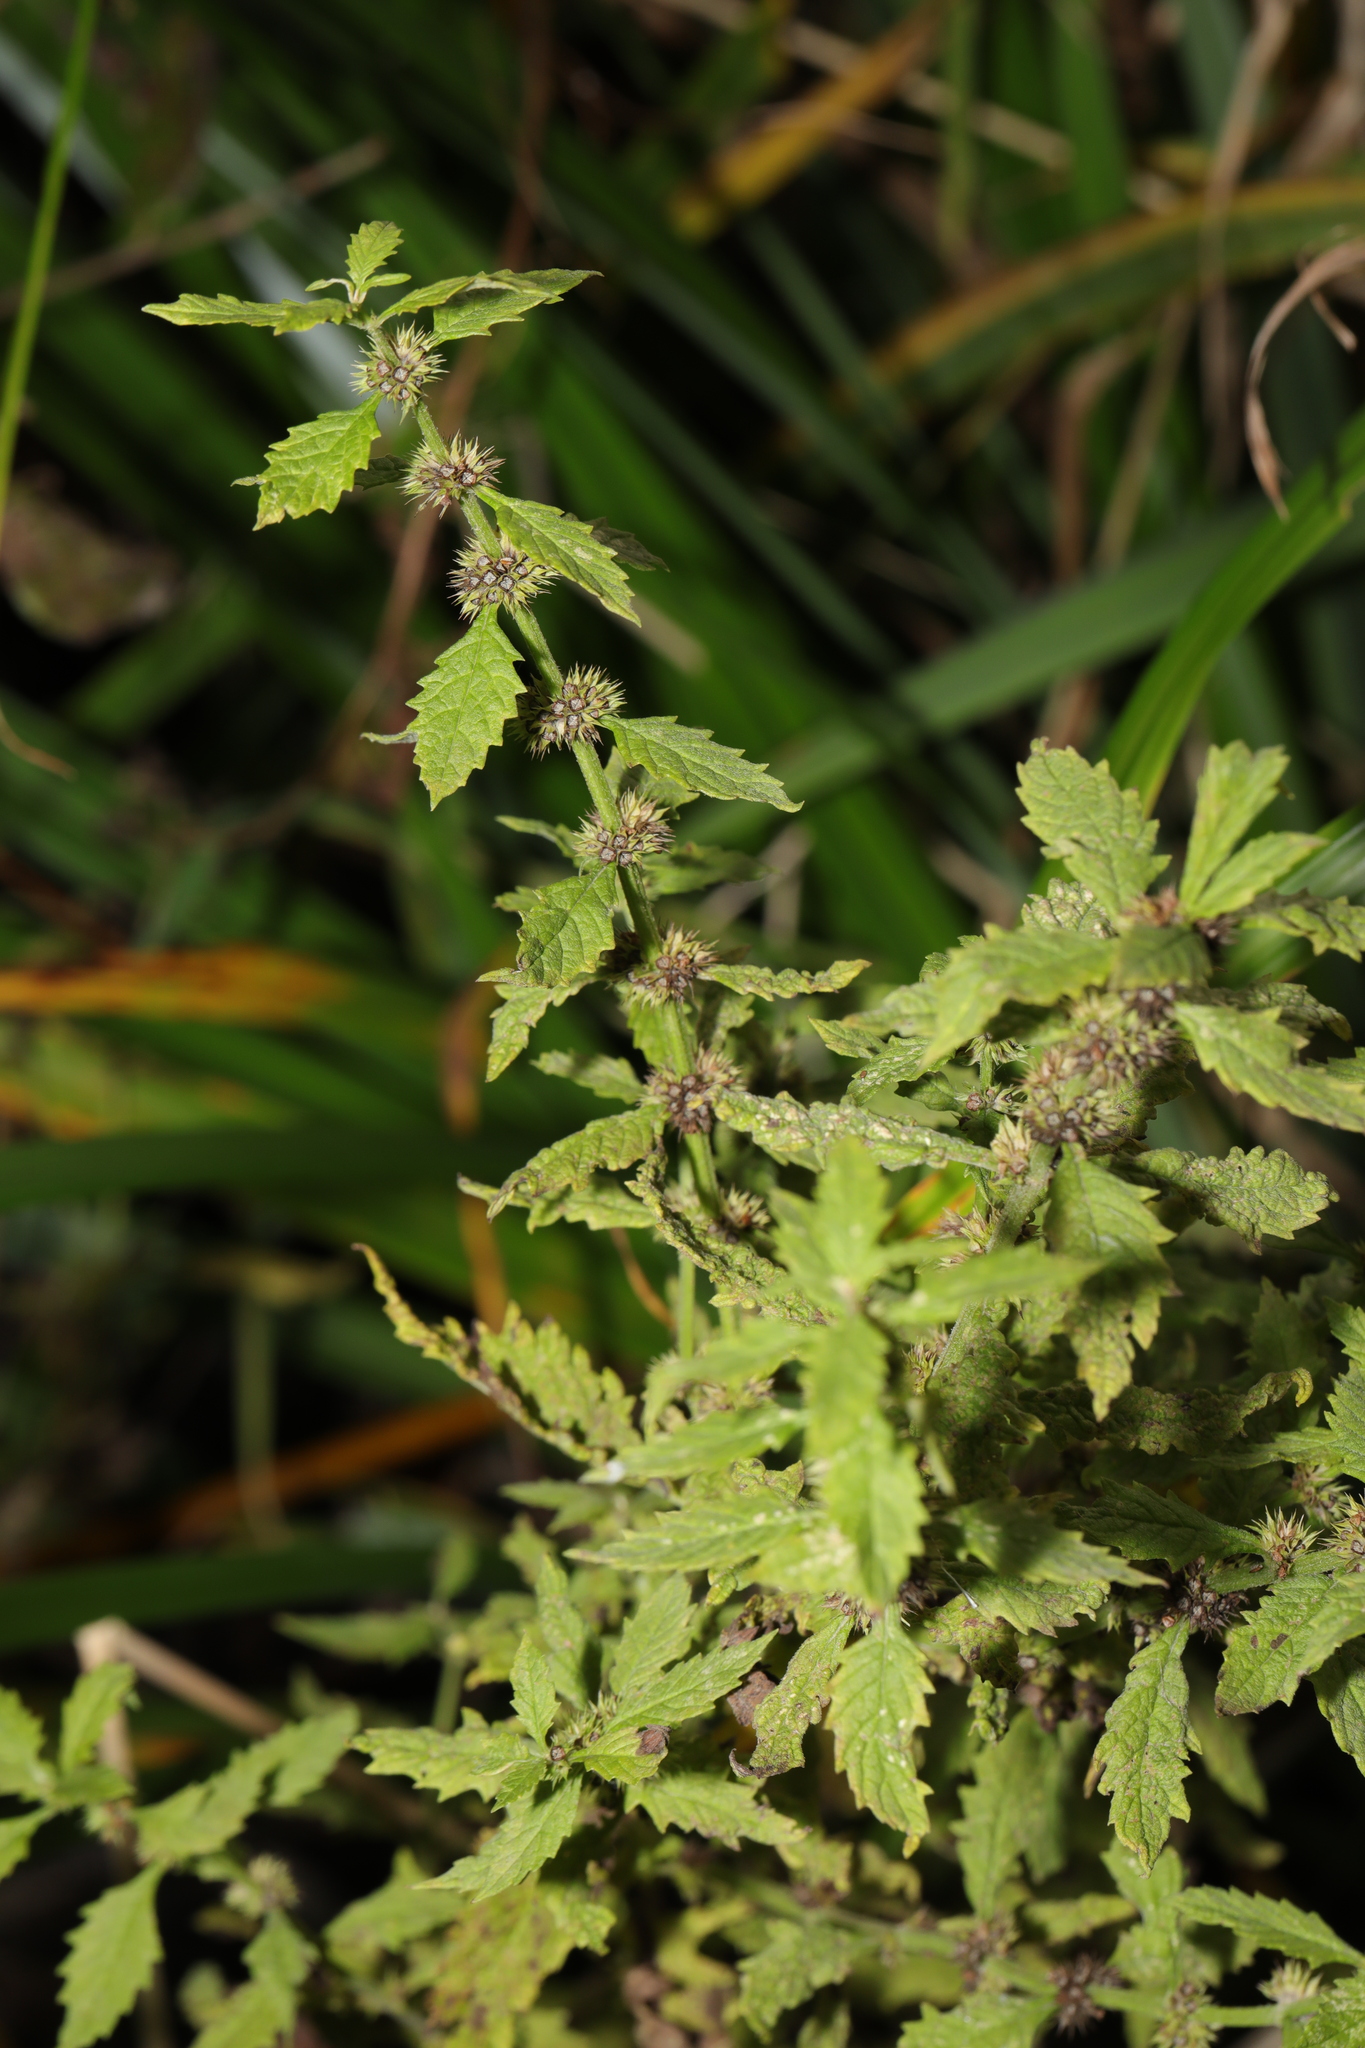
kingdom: Plantae
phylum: Tracheophyta
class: Magnoliopsida
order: Lamiales
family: Lamiaceae
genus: Lycopus
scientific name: Lycopus europaeus
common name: European bugleweed
